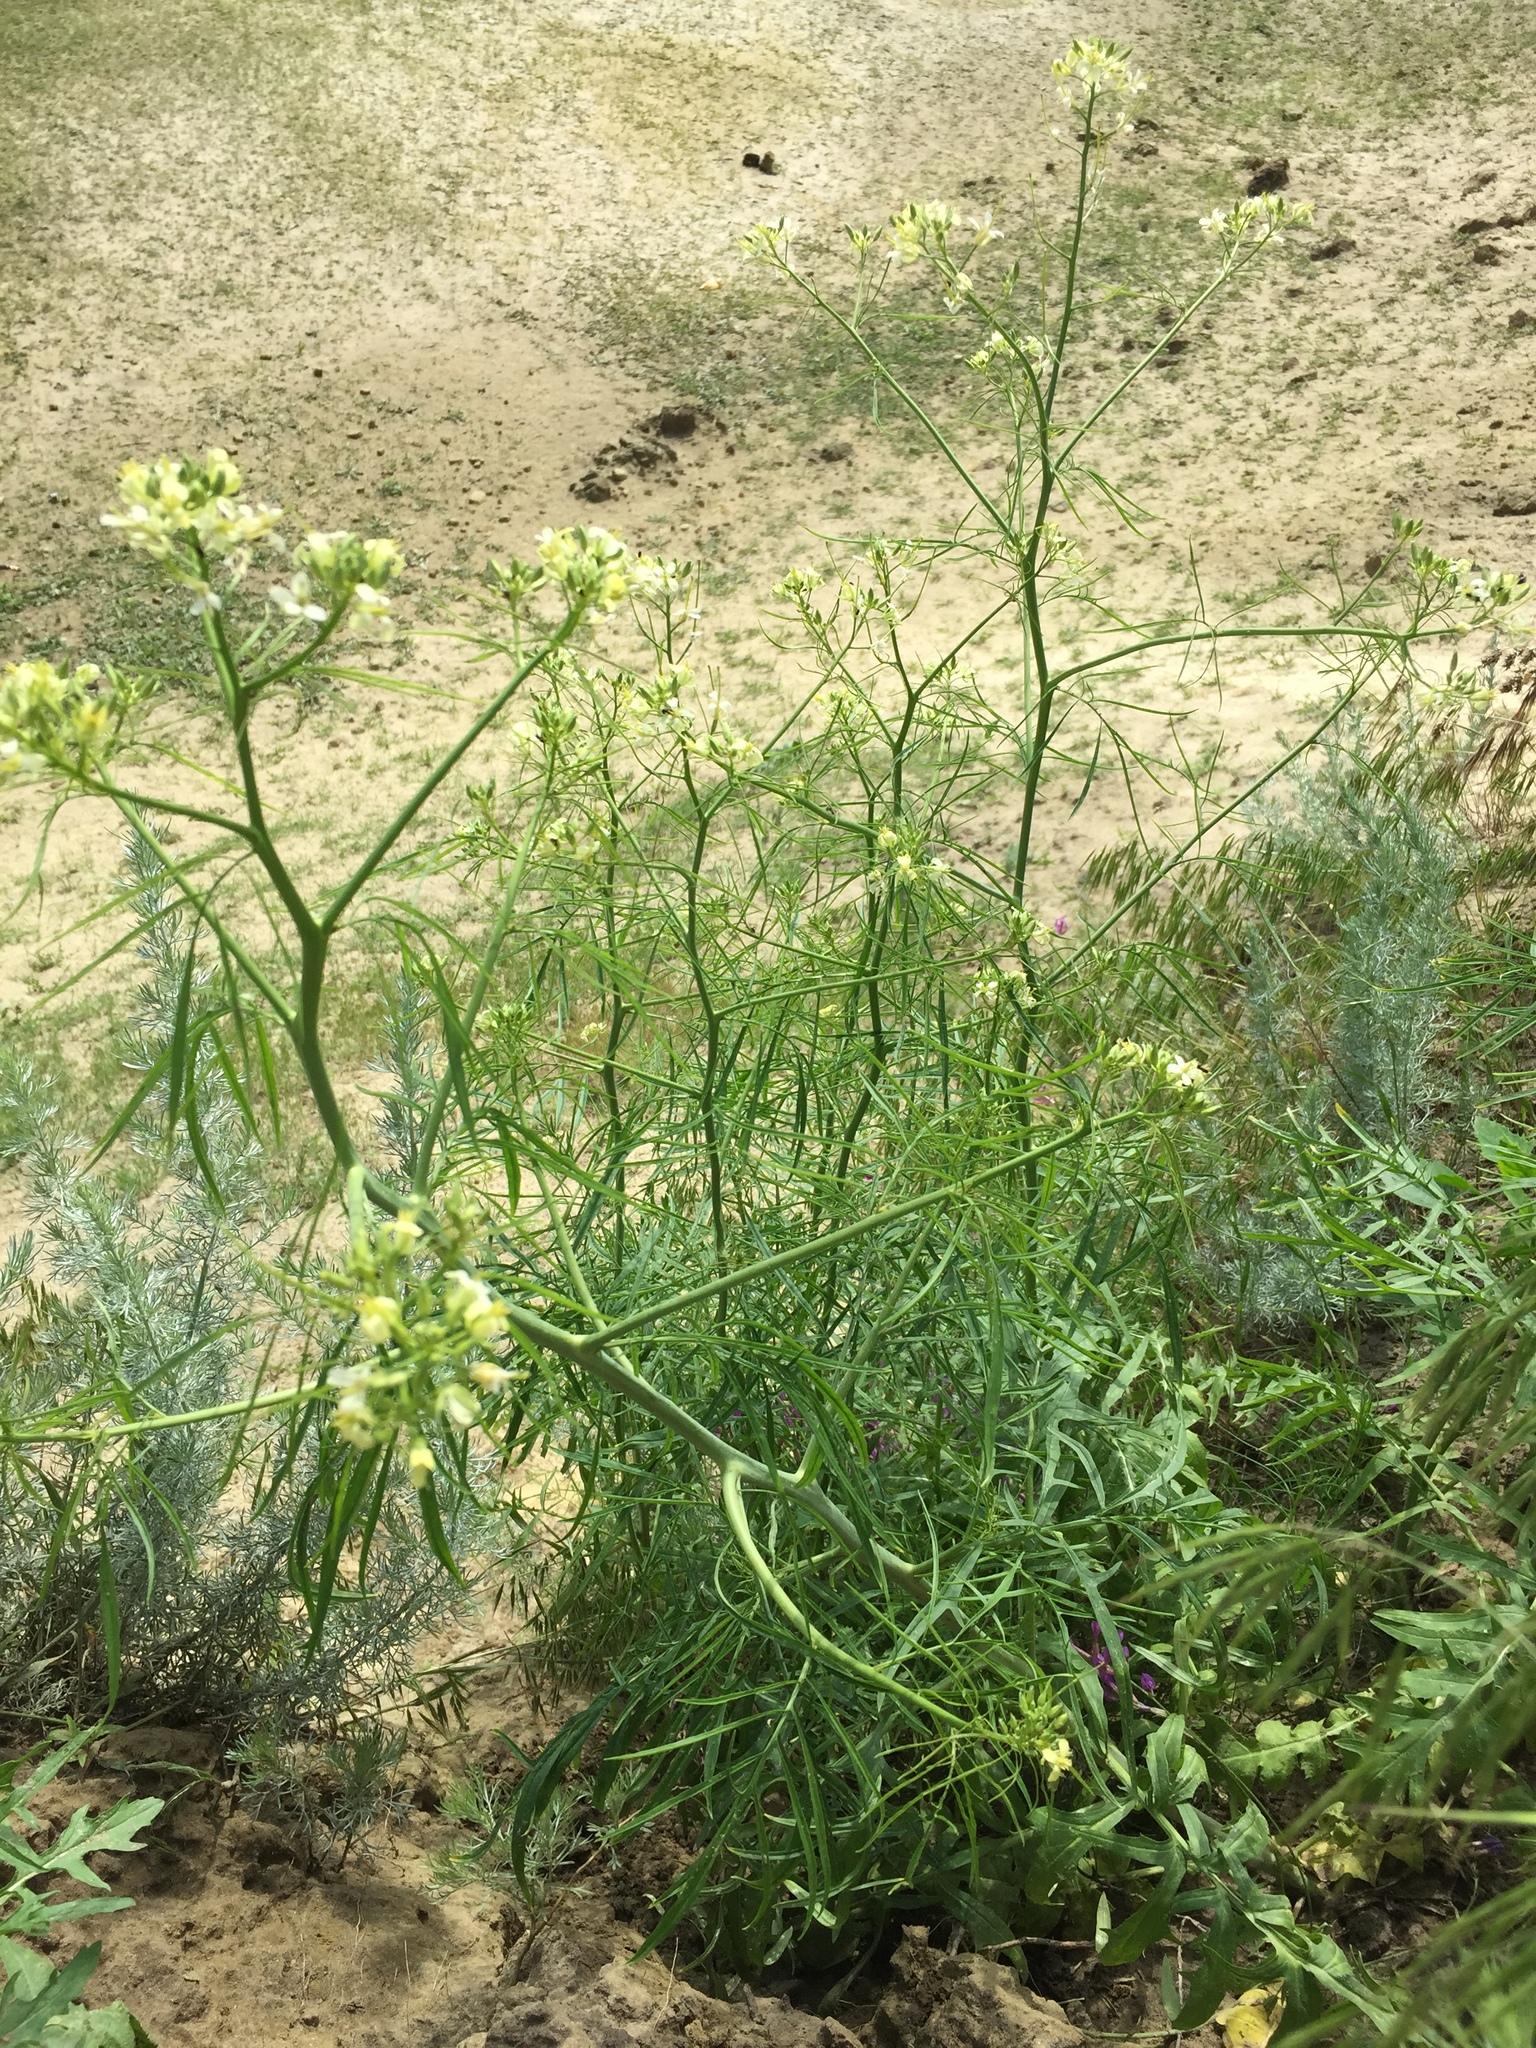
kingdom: Plantae
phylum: Tracheophyta
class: Magnoliopsida
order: Brassicales
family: Brassicaceae
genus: Sisymbrium
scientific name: Sisymbrium altissimum
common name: Tall rocket
